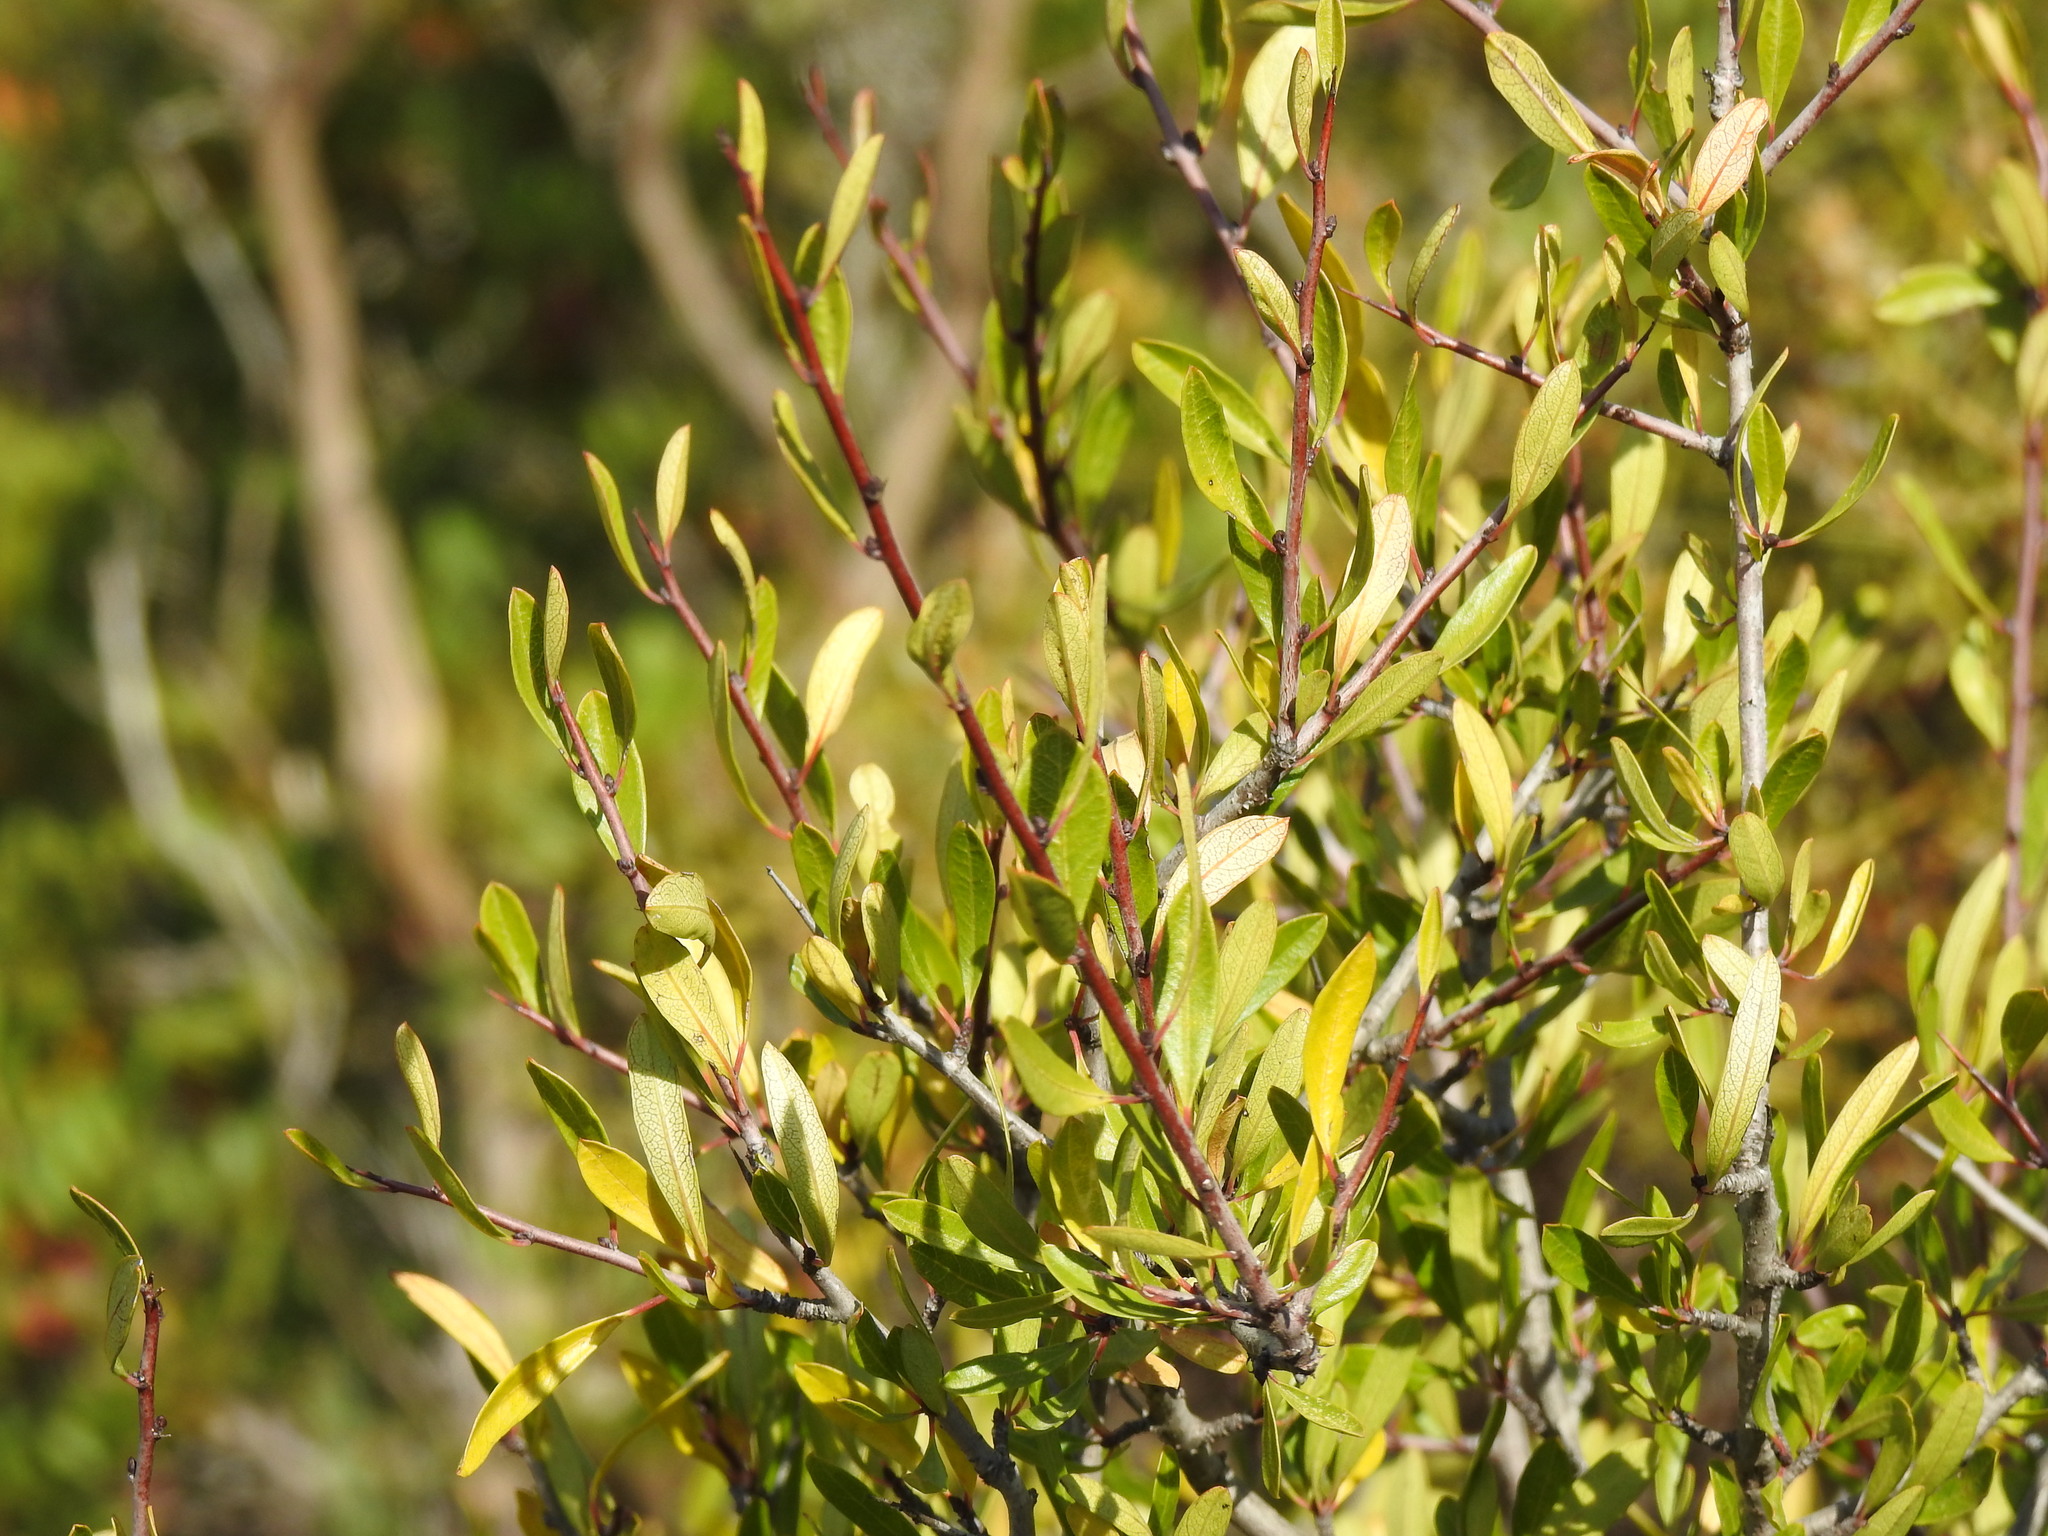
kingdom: Plantae
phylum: Tracheophyta
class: Magnoliopsida
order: Rosales
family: Rhamnaceae
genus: Rhamnus
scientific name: Rhamnus oleoides
